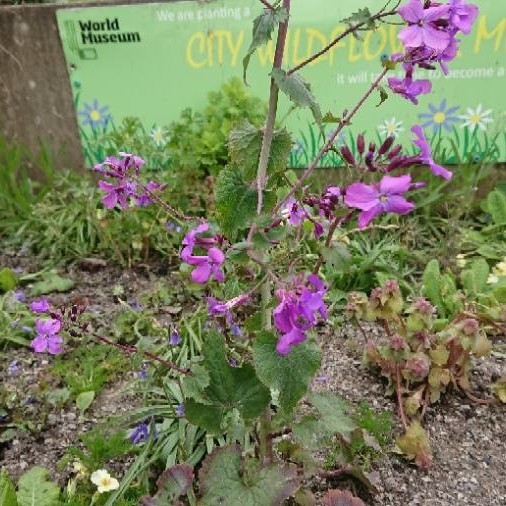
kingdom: Plantae
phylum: Tracheophyta
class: Magnoliopsida
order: Brassicales
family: Brassicaceae
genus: Lunaria
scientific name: Lunaria annua
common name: Honesty
